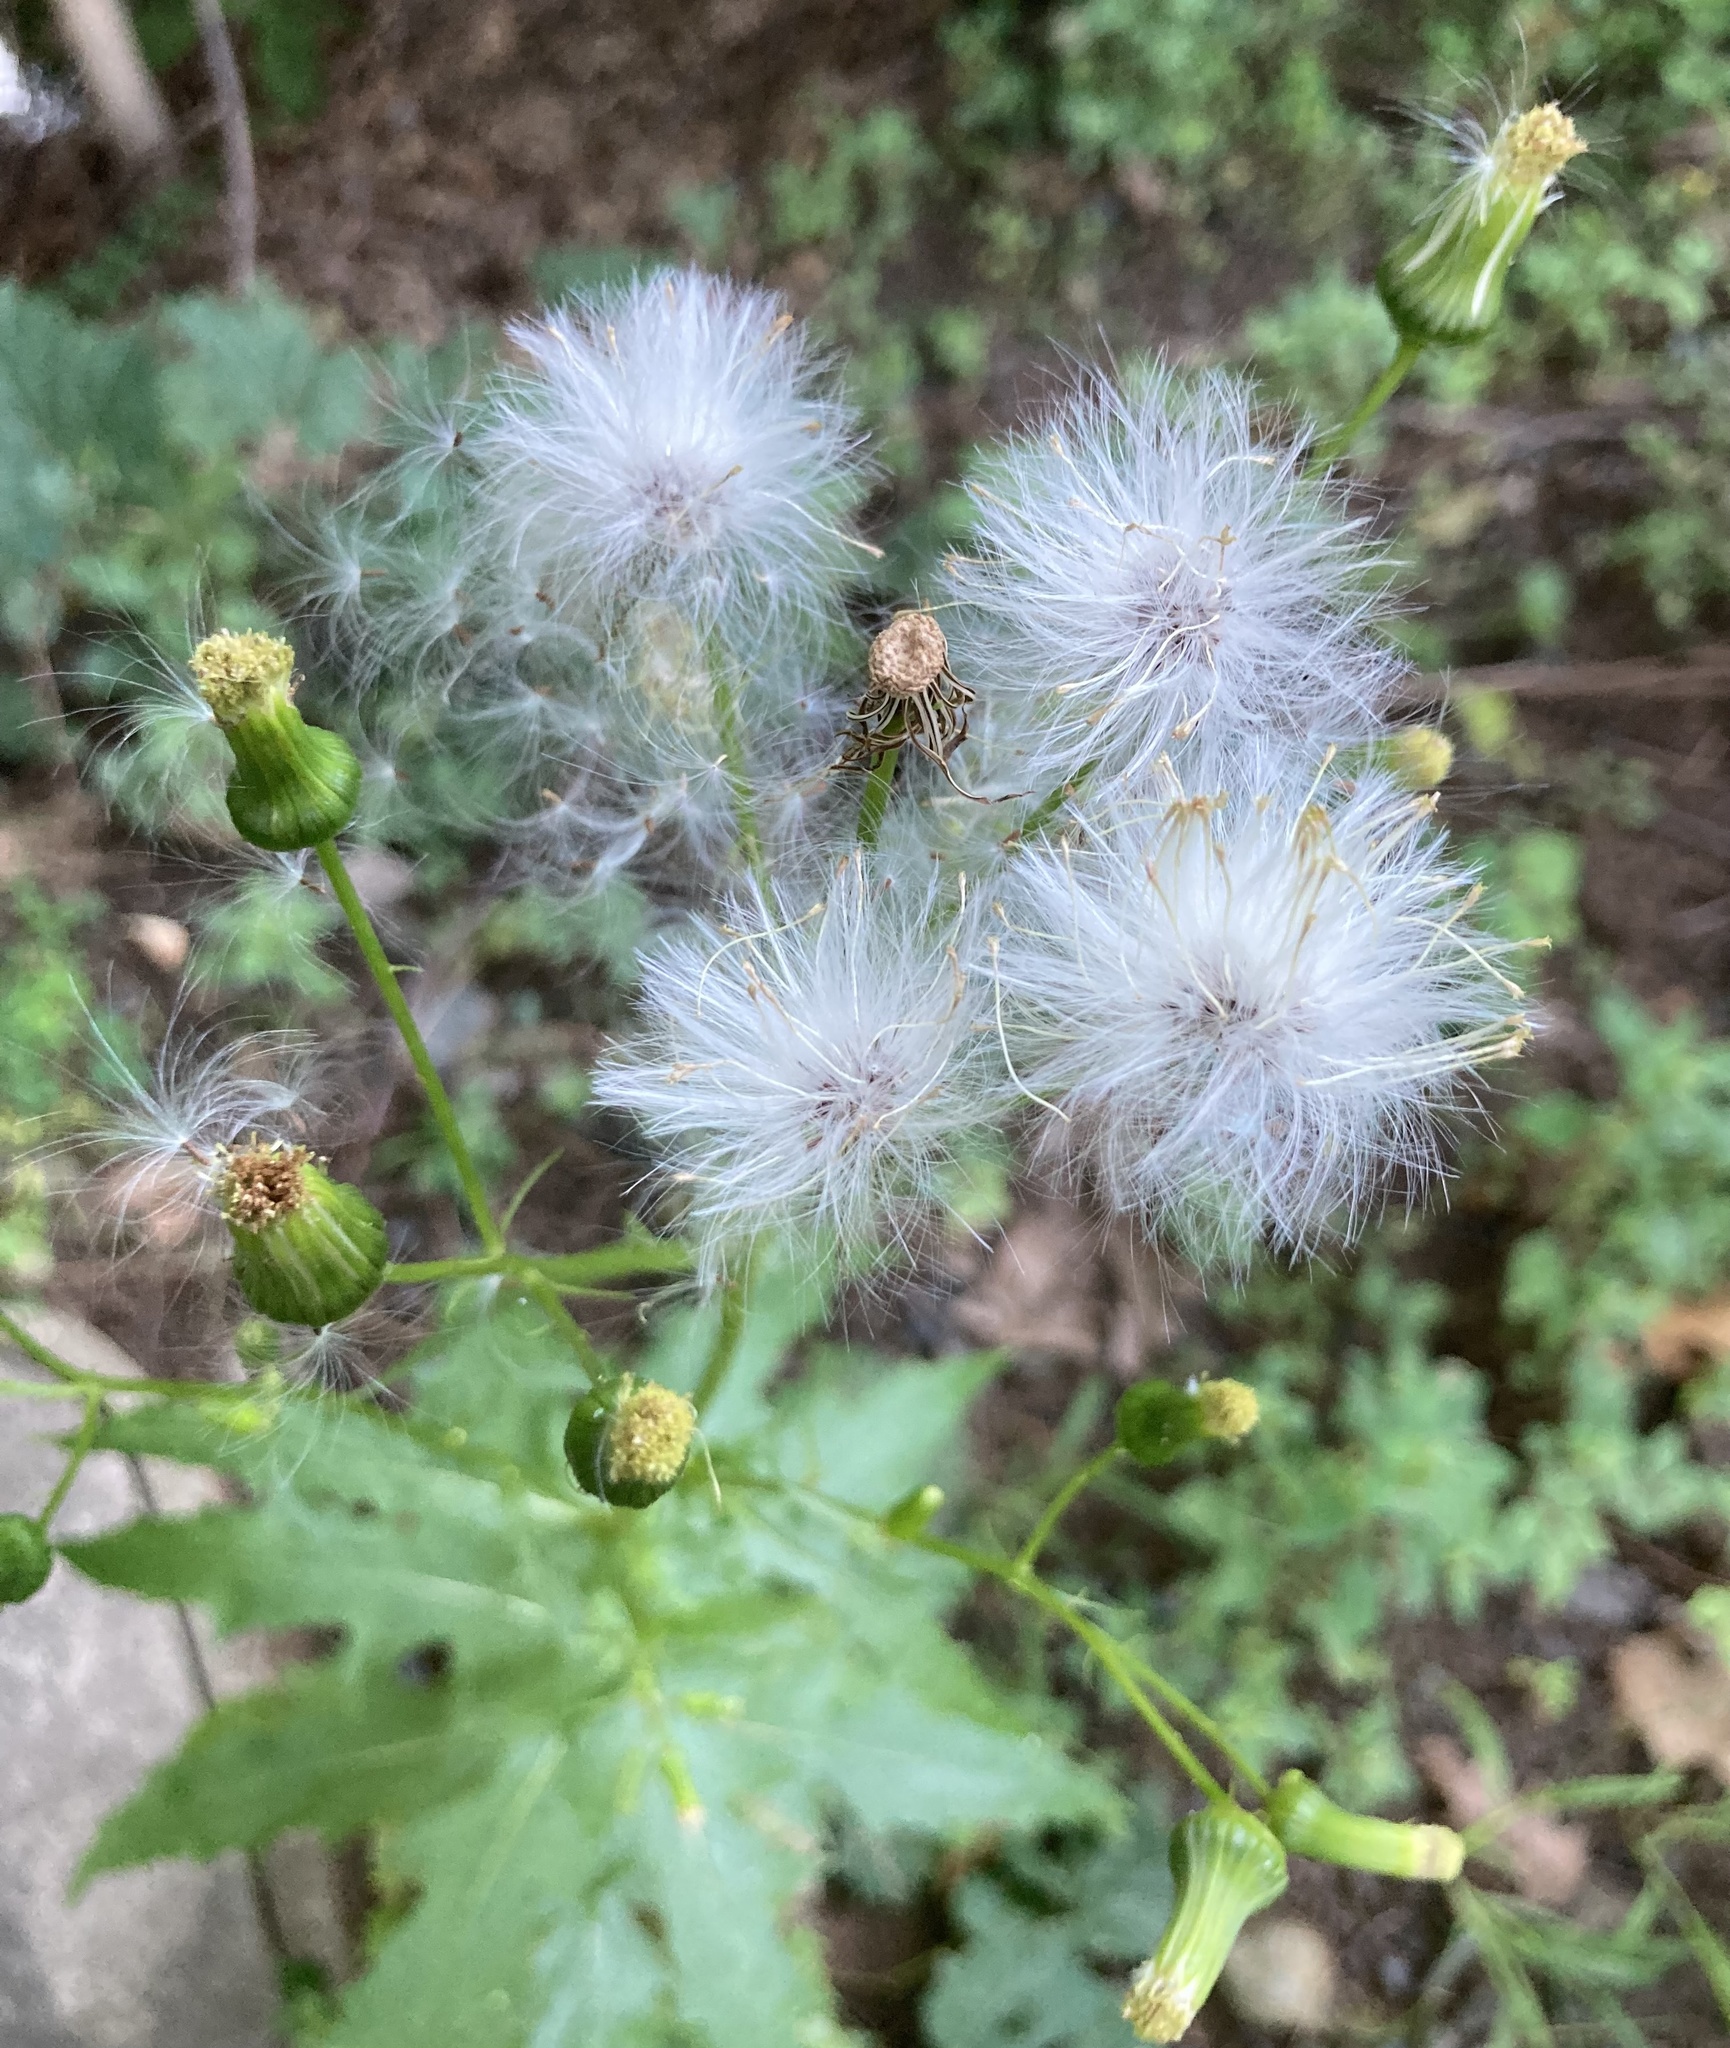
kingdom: Plantae
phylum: Tracheophyta
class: Magnoliopsida
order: Asterales
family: Asteraceae
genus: Erechtites
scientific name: Erechtites hieraciifolius
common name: American burnweed
